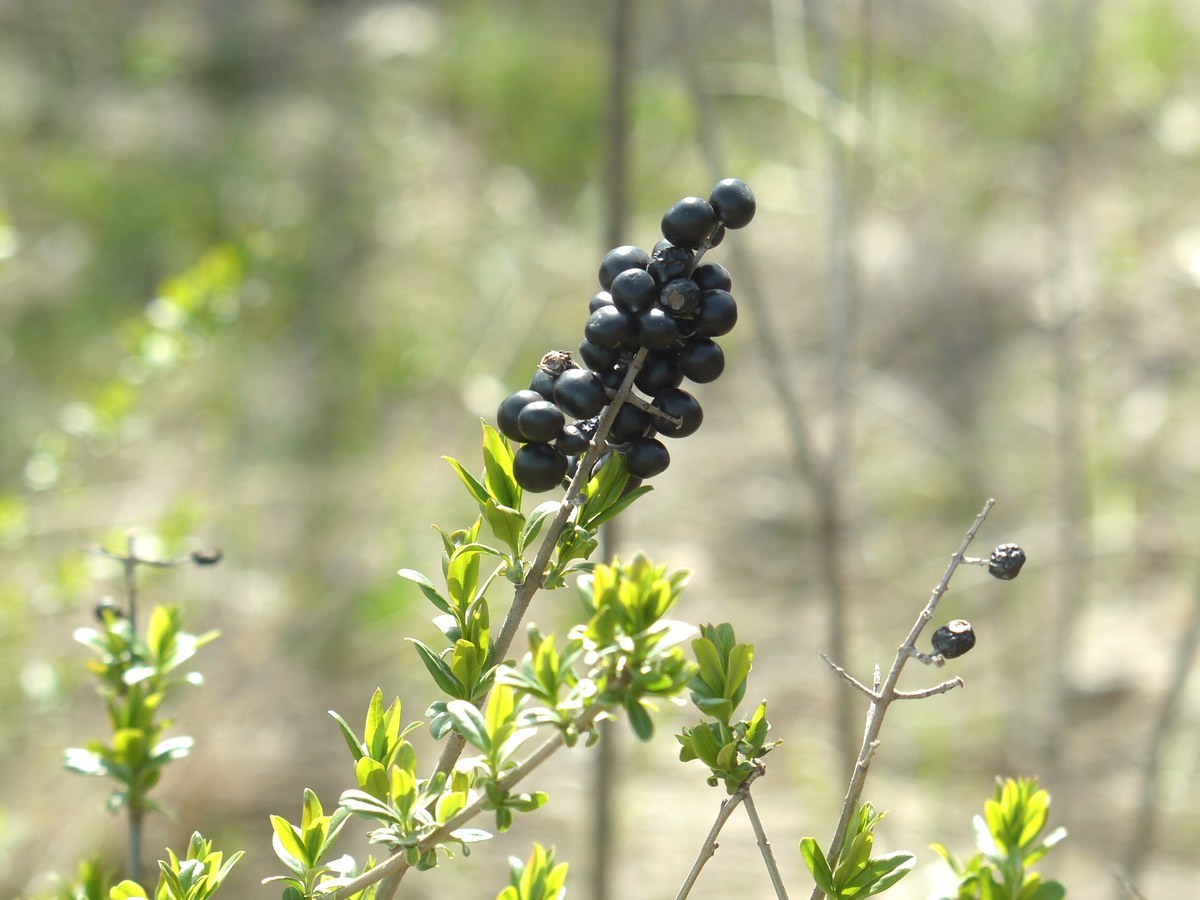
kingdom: Plantae
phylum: Tracheophyta
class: Magnoliopsida
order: Lamiales
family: Oleaceae
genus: Ligustrum
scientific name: Ligustrum vulgare
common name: Wild privet
